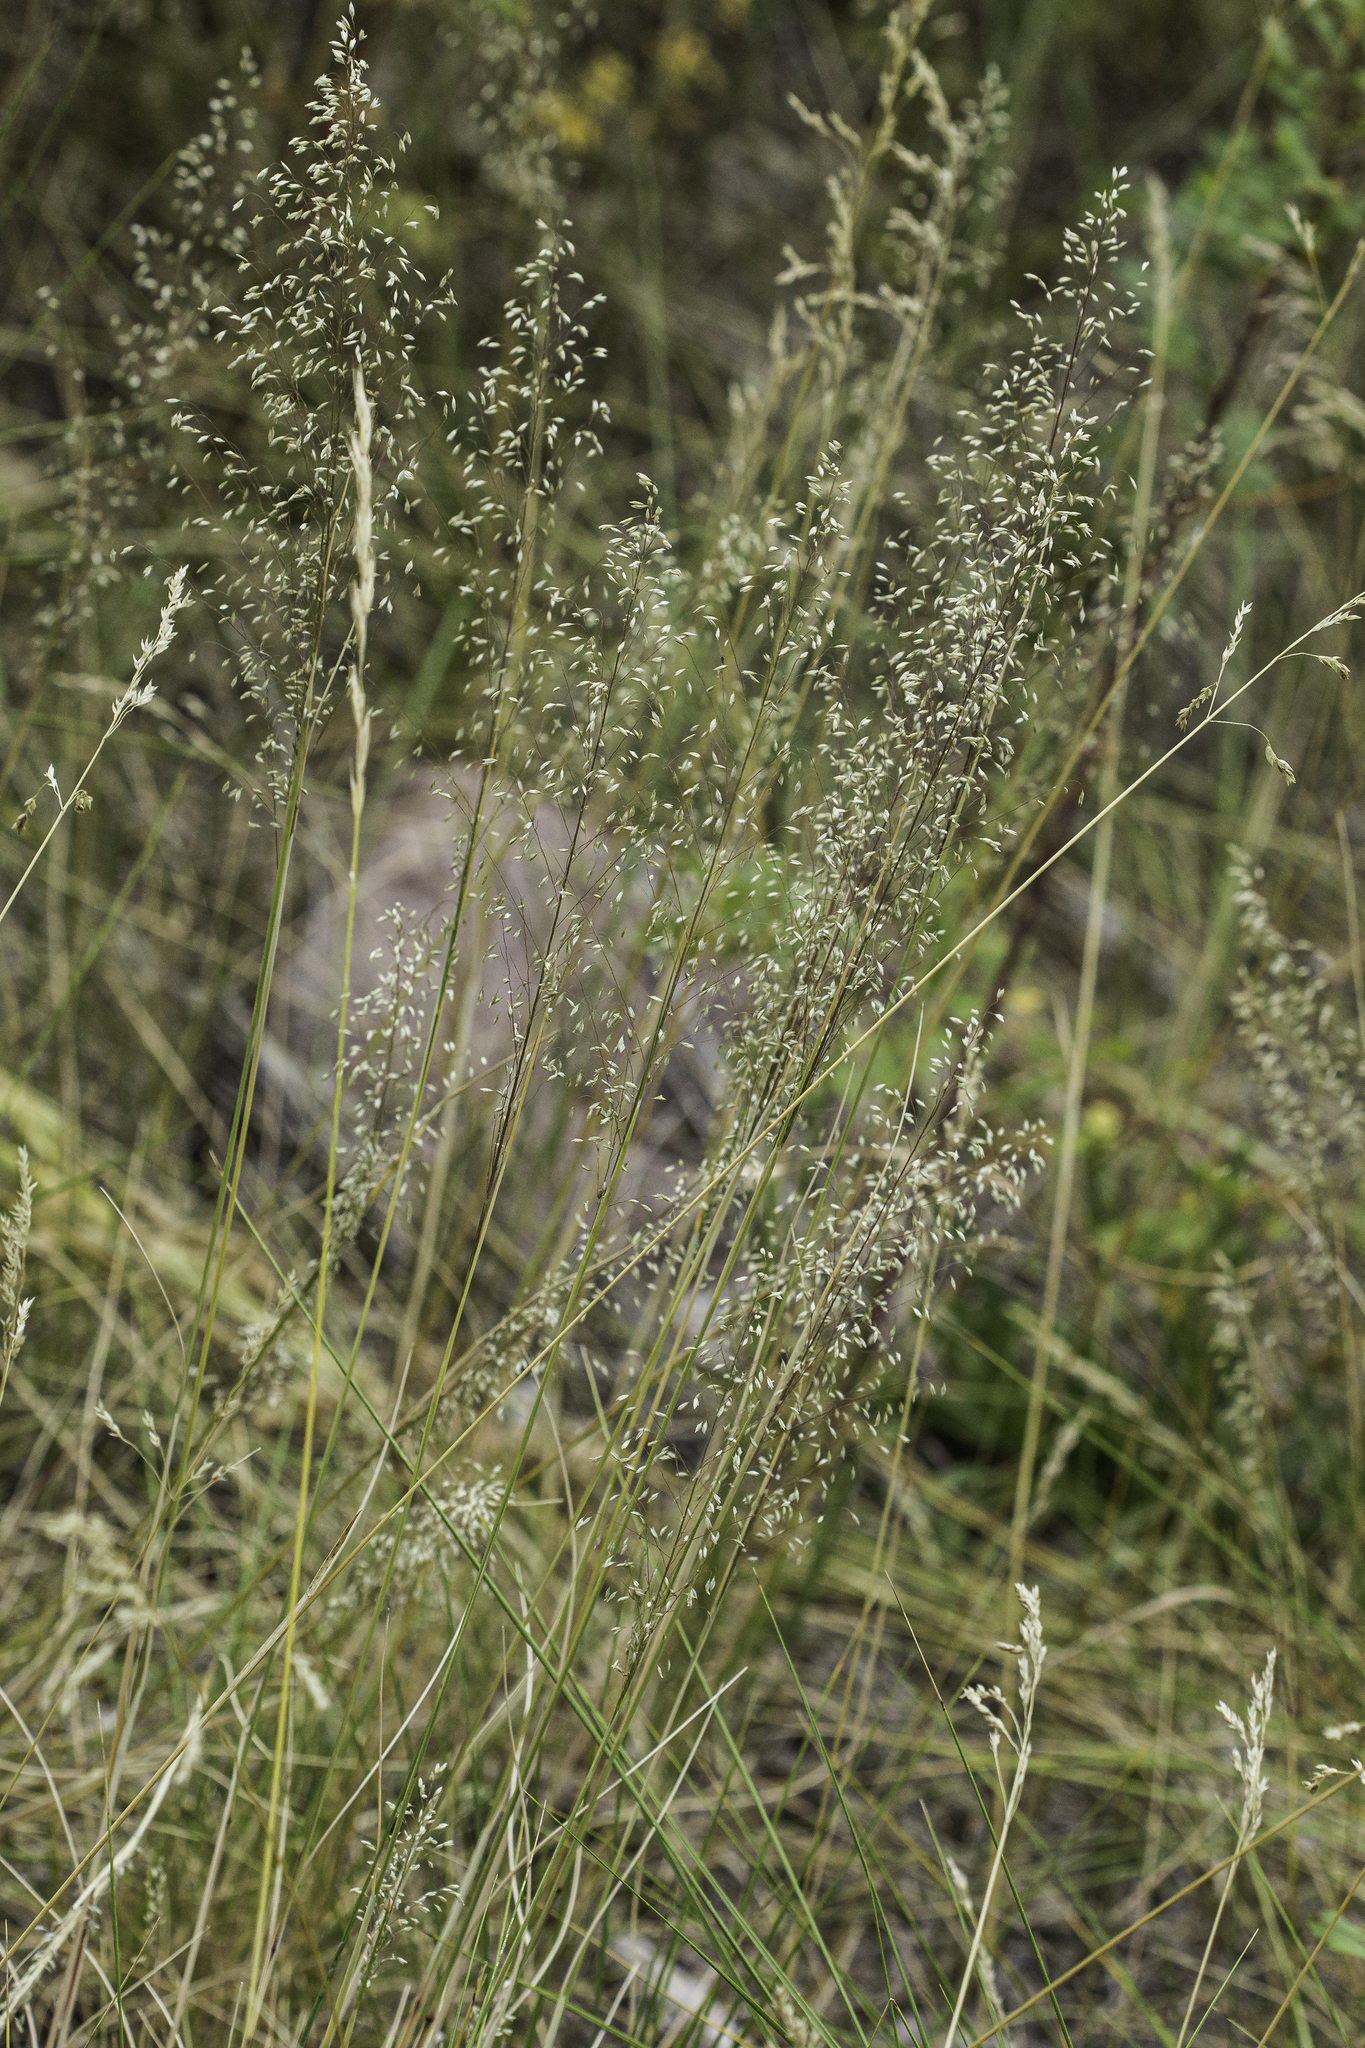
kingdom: Plantae
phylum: Tracheophyta
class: Liliopsida
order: Poales
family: Poaceae
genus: Muhlenbergia
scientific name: Muhlenbergia tricholepis
